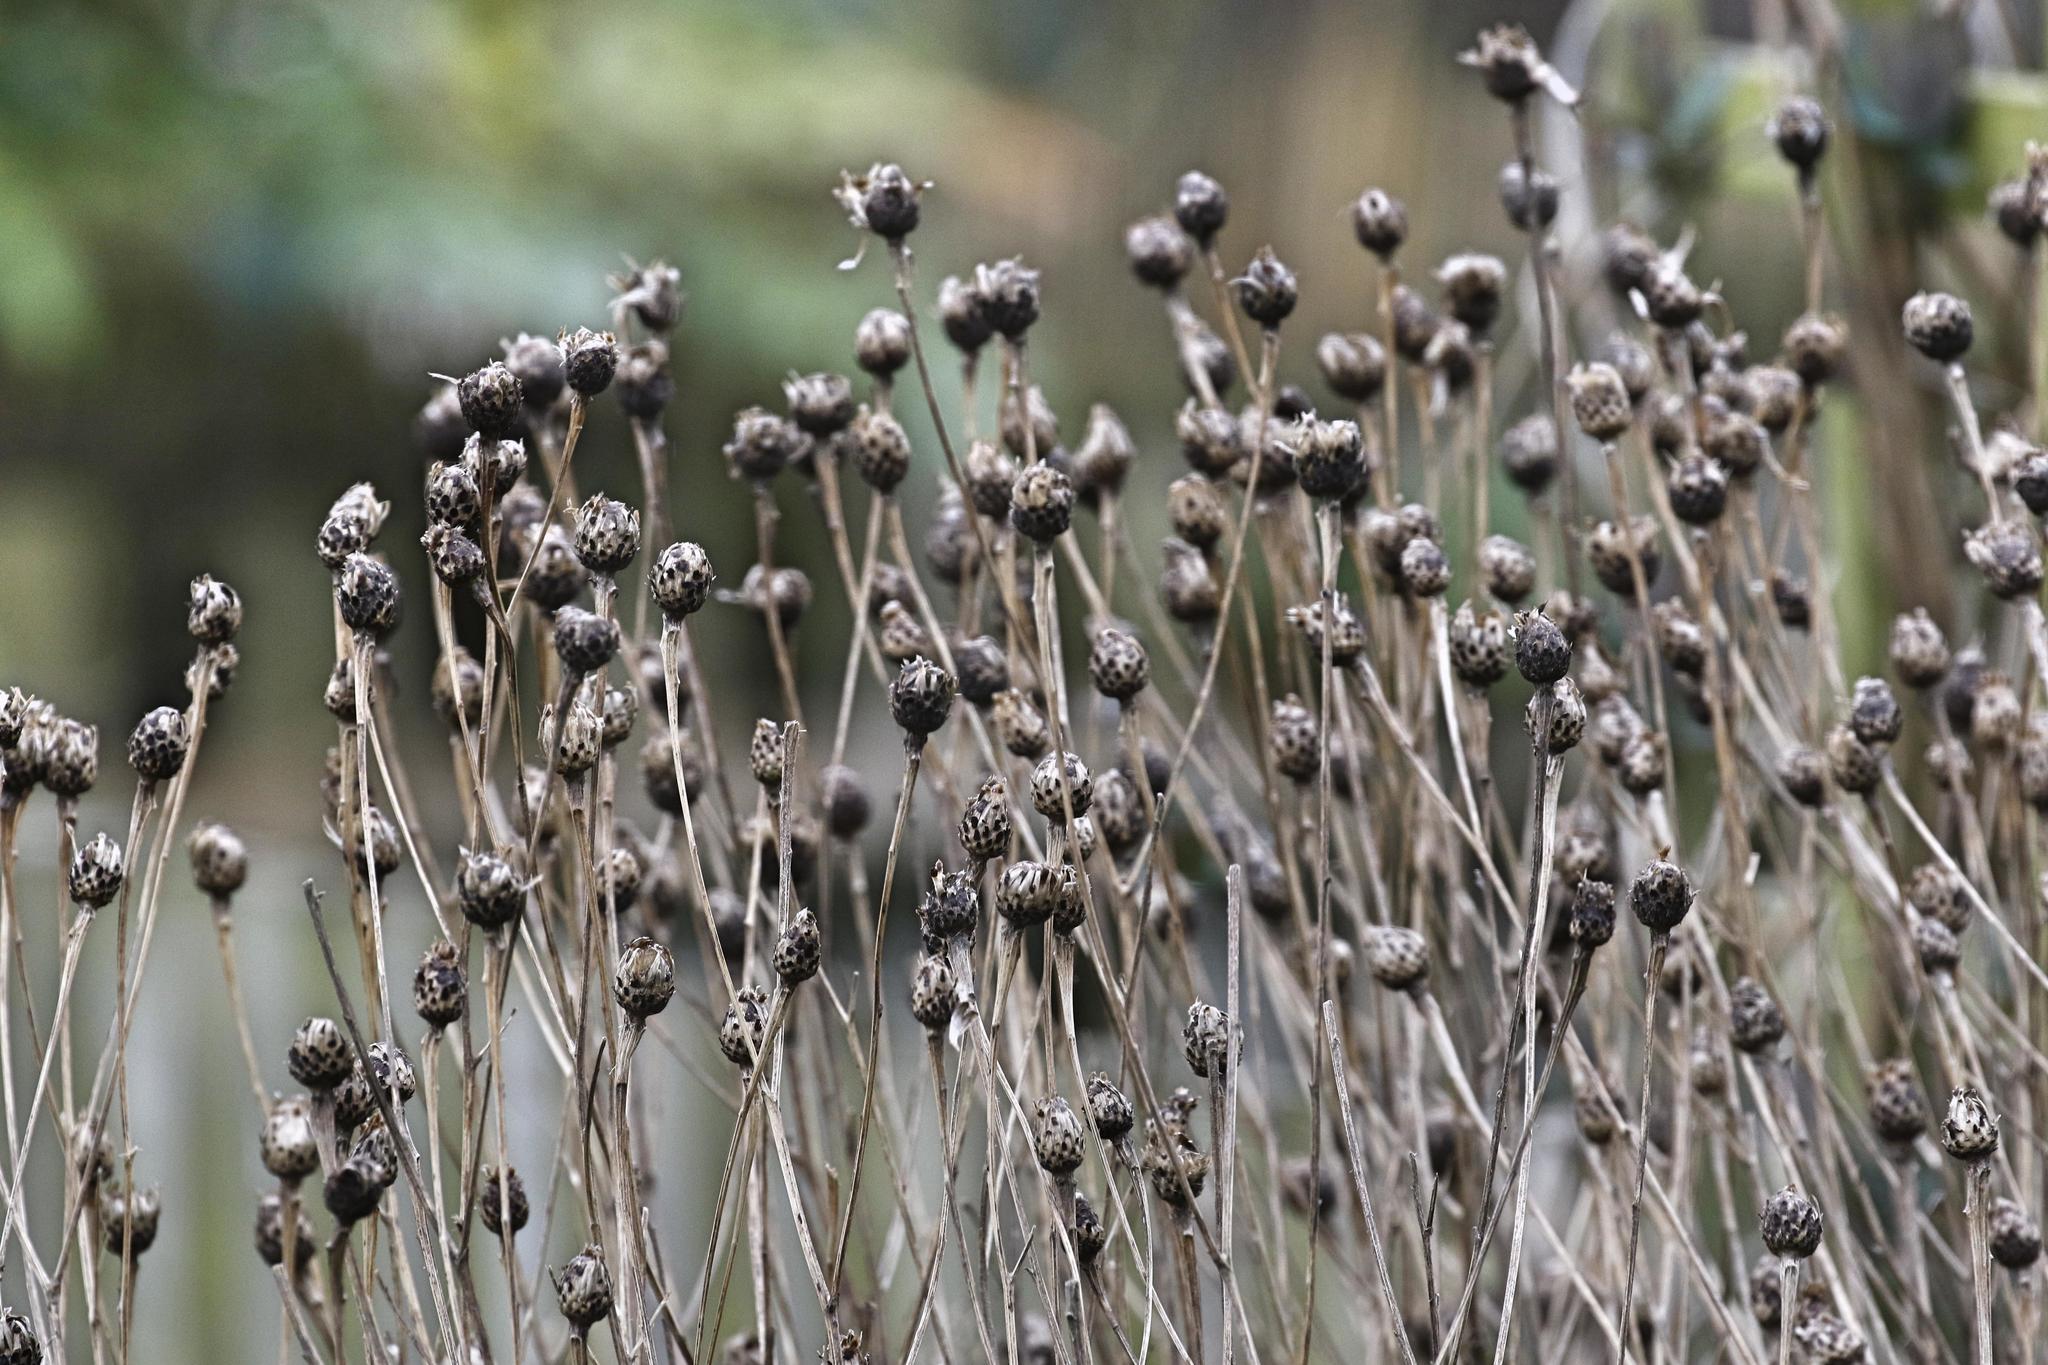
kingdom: Plantae
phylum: Tracheophyta
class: Magnoliopsida
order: Asterales
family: Asteraceae
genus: Centaurea
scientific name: Centaurea nigra
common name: Lesser knapweed
